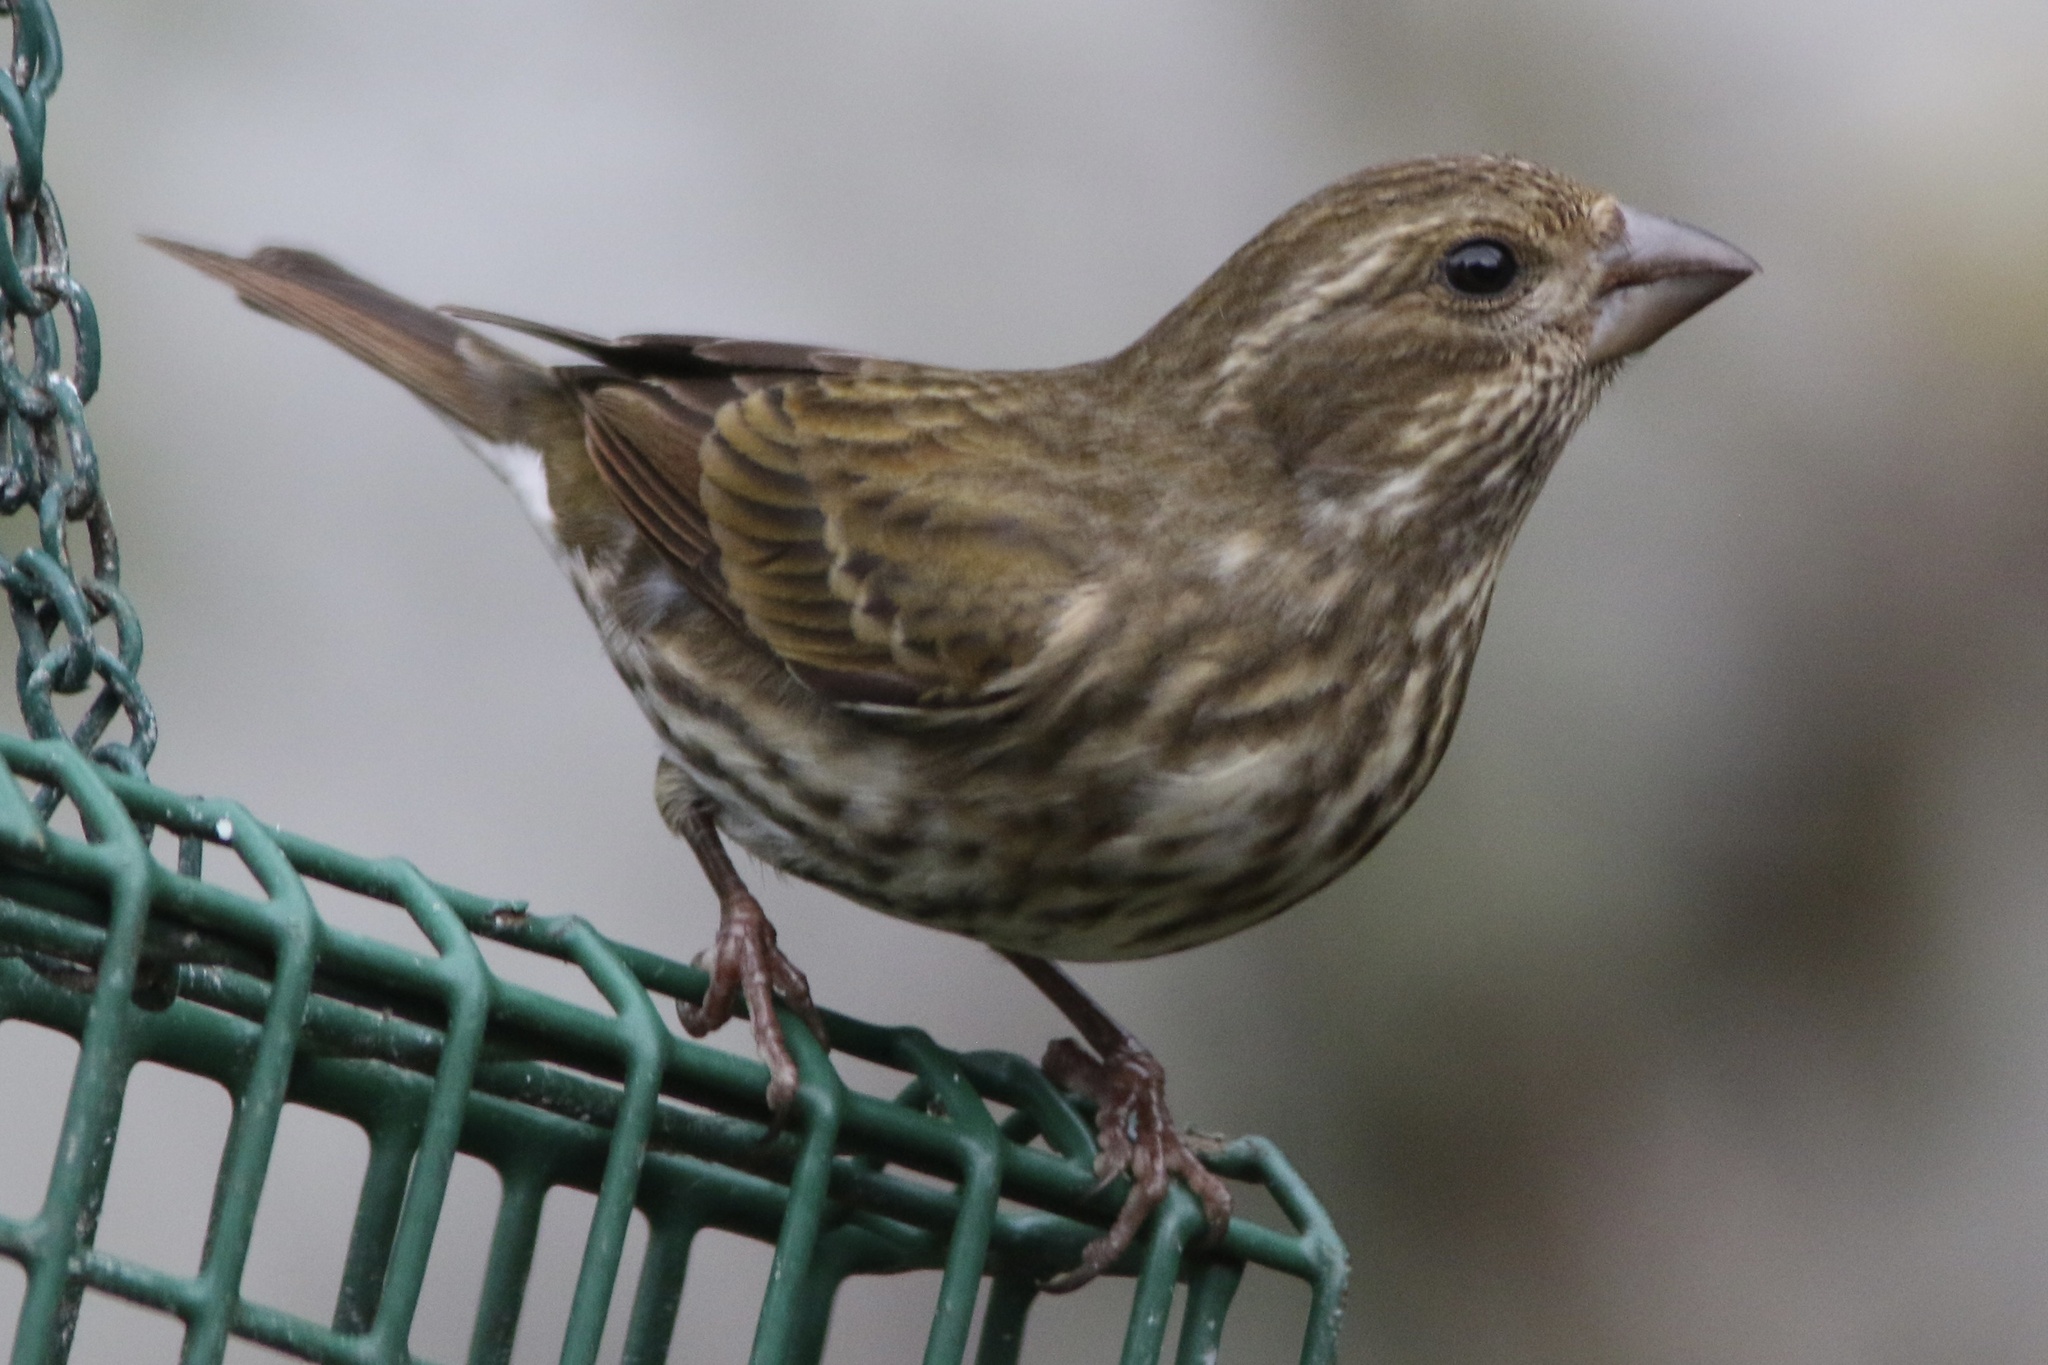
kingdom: Animalia
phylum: Chordata
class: Aves
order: Passeriformes
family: Fringillidae
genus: Haemorhous
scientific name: Haemorhous purpureus
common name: Purple finch
